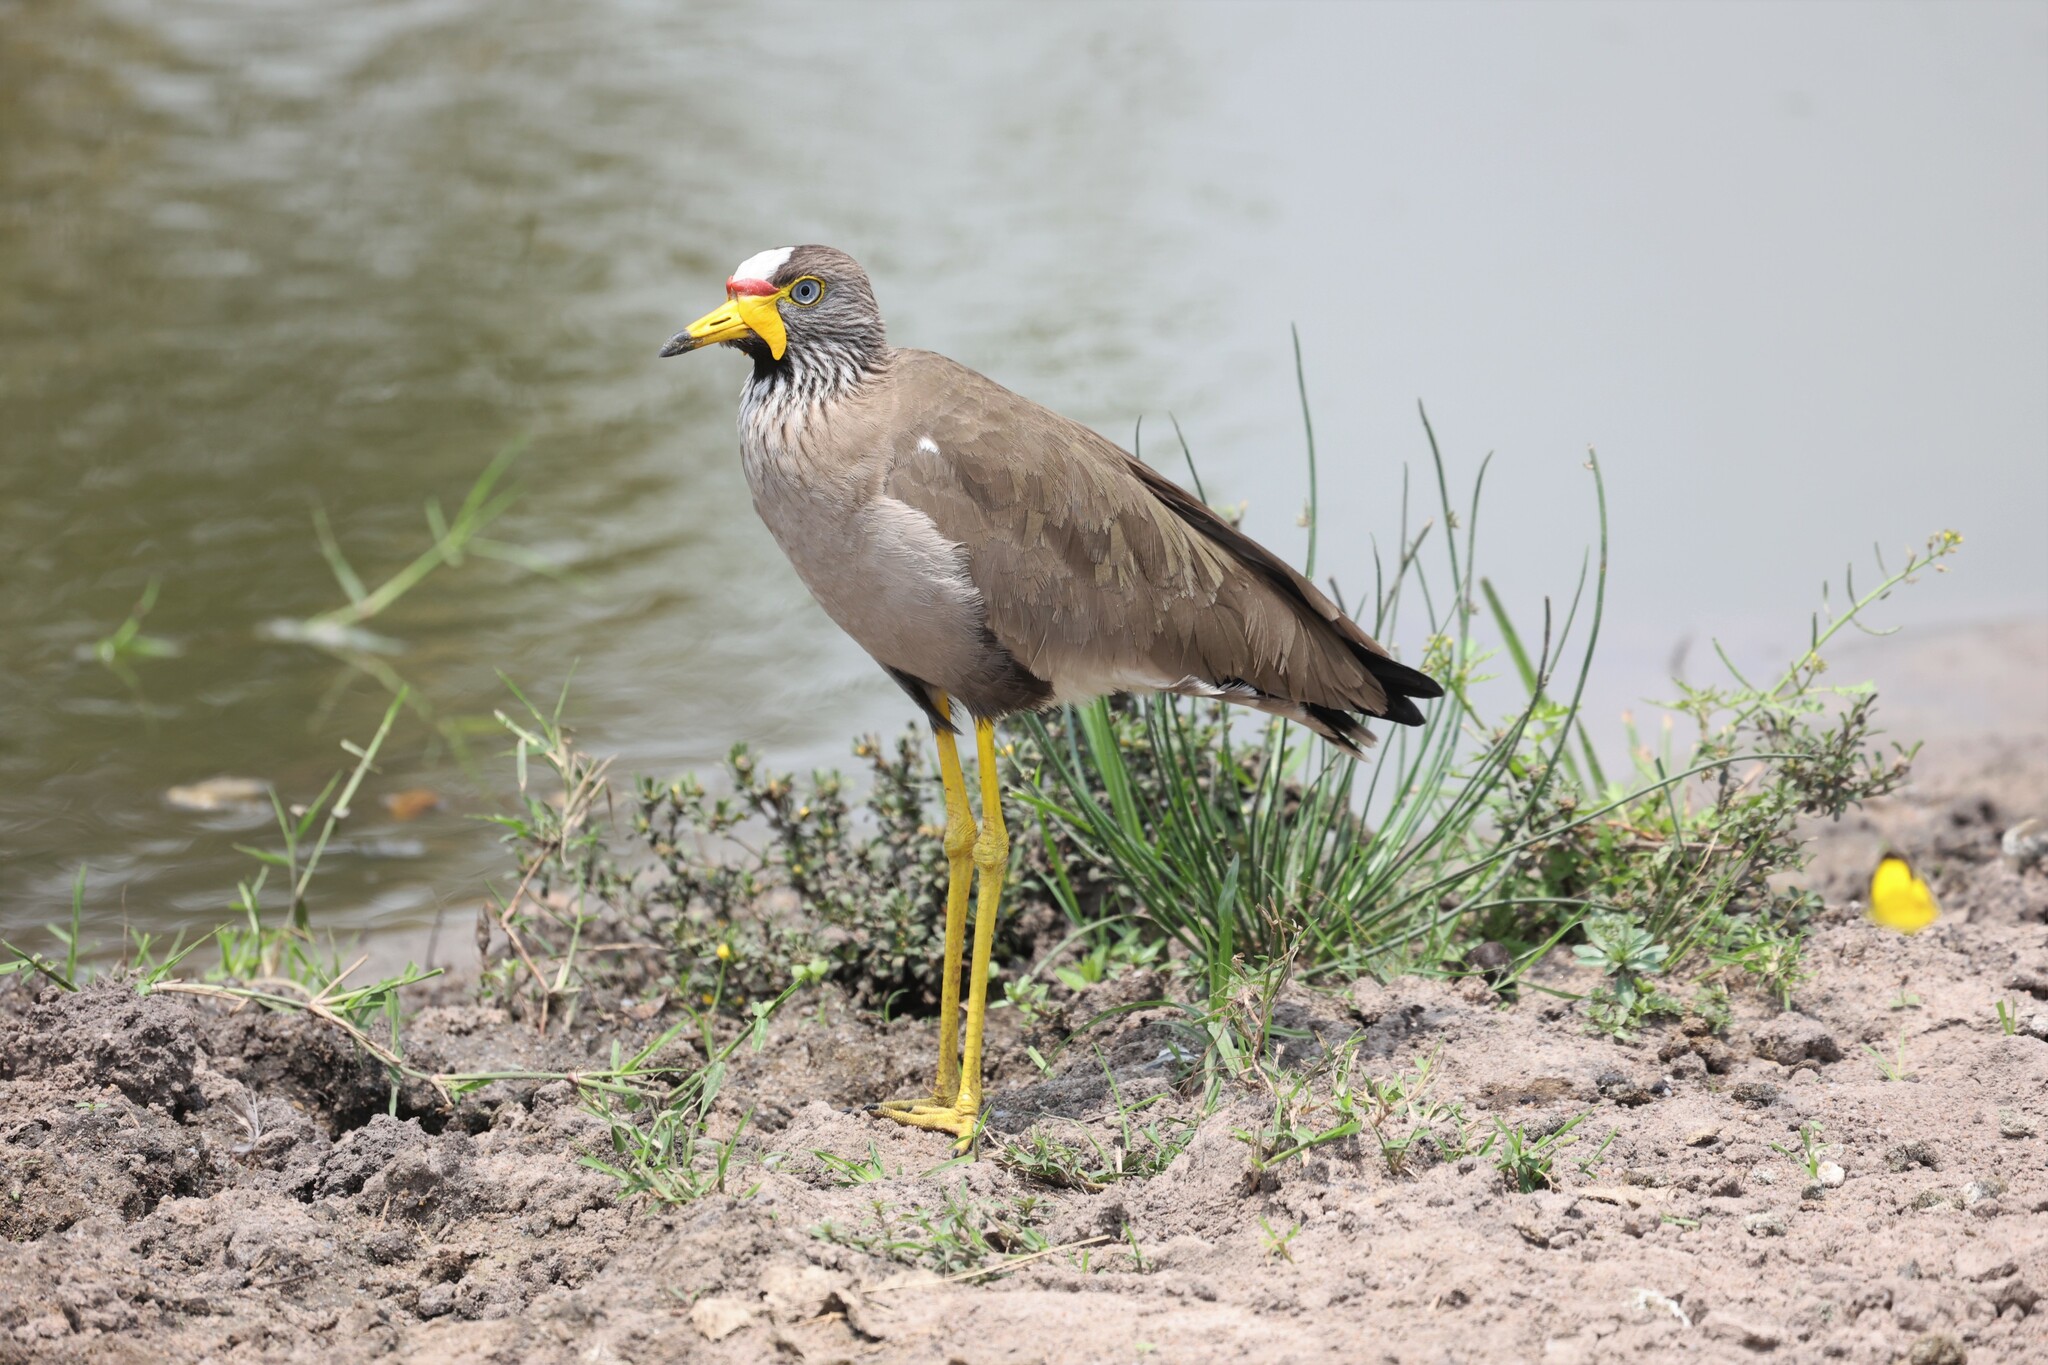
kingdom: Animalia
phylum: Chordata
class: Aves
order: Charadriiformes
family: Charadriidae
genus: Vanellus
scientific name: Vanellus senegallus
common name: African wattled lapwing
